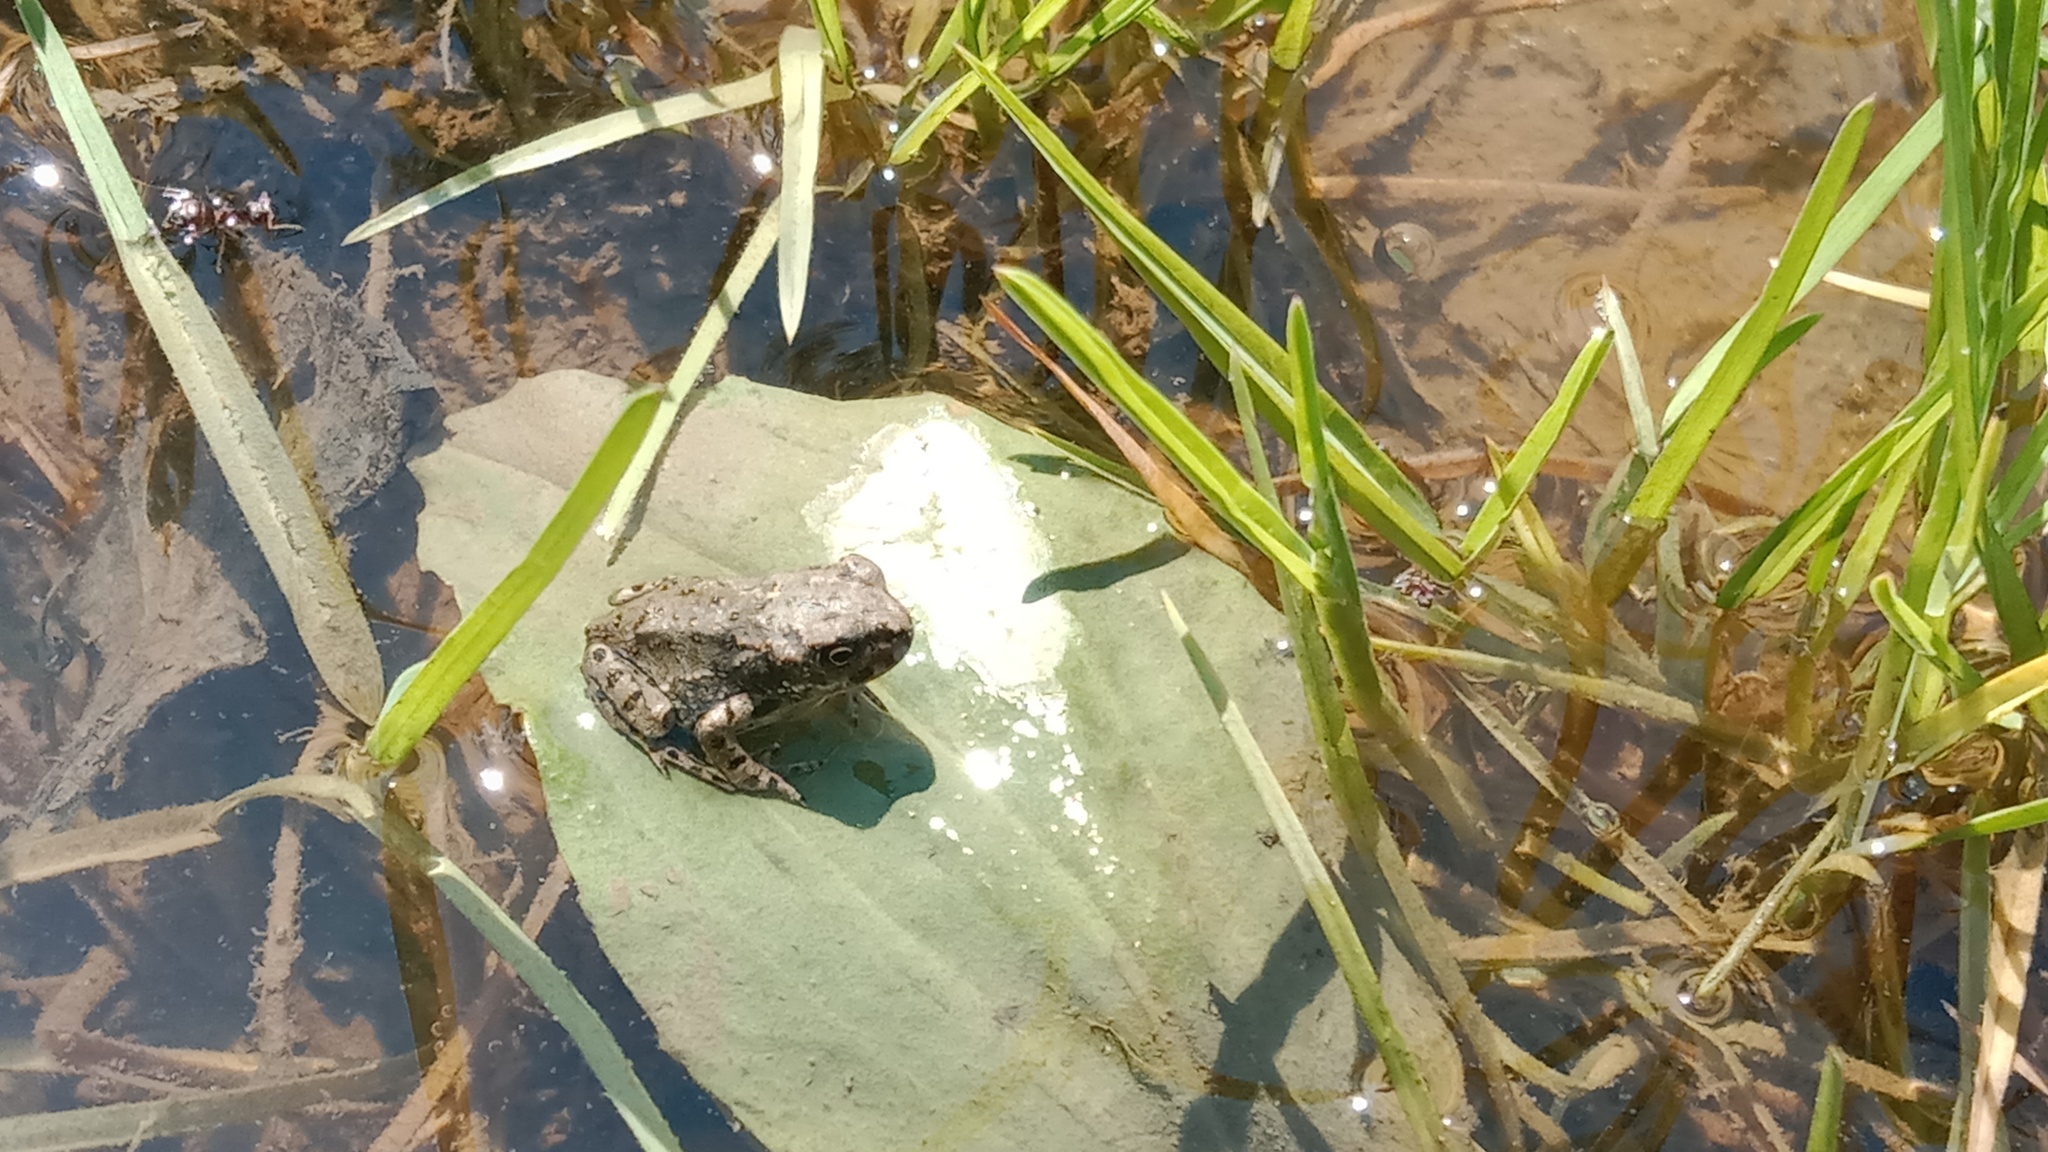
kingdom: Animalia
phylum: Chordata
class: Amphibia
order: Anura
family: Bufonidae
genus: Bufotes
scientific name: Bufotes viridis
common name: European green toad
